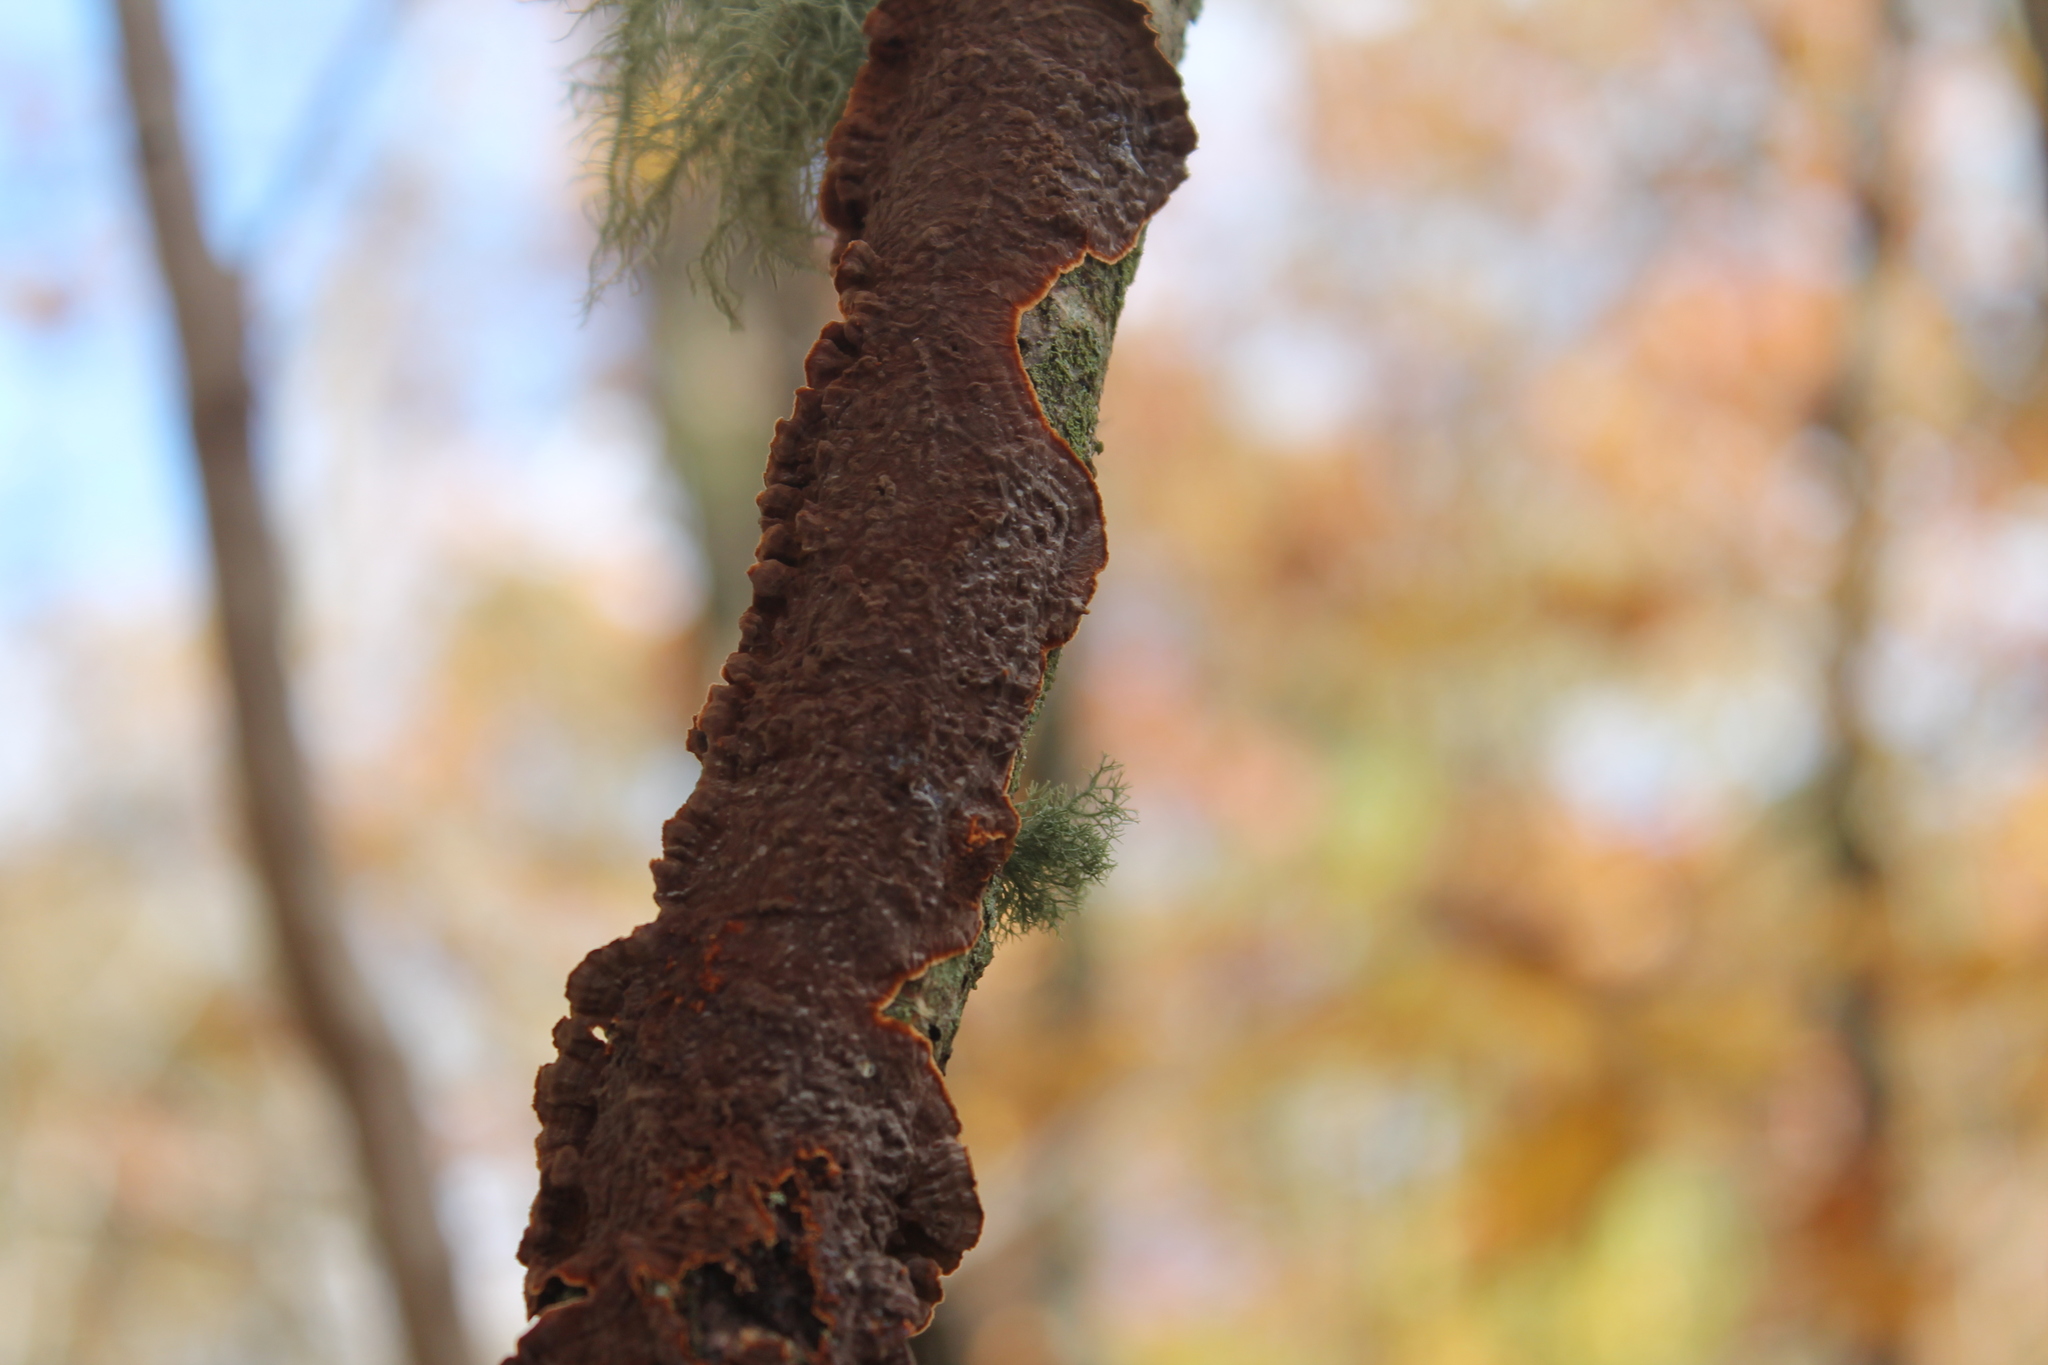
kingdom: Fungi
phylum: Basidiomycota
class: Agaricomycetes
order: Corticiales
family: Punctulariaceae
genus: Punctularia
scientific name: Punctularia strigosozonata
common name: White-rot fungus
